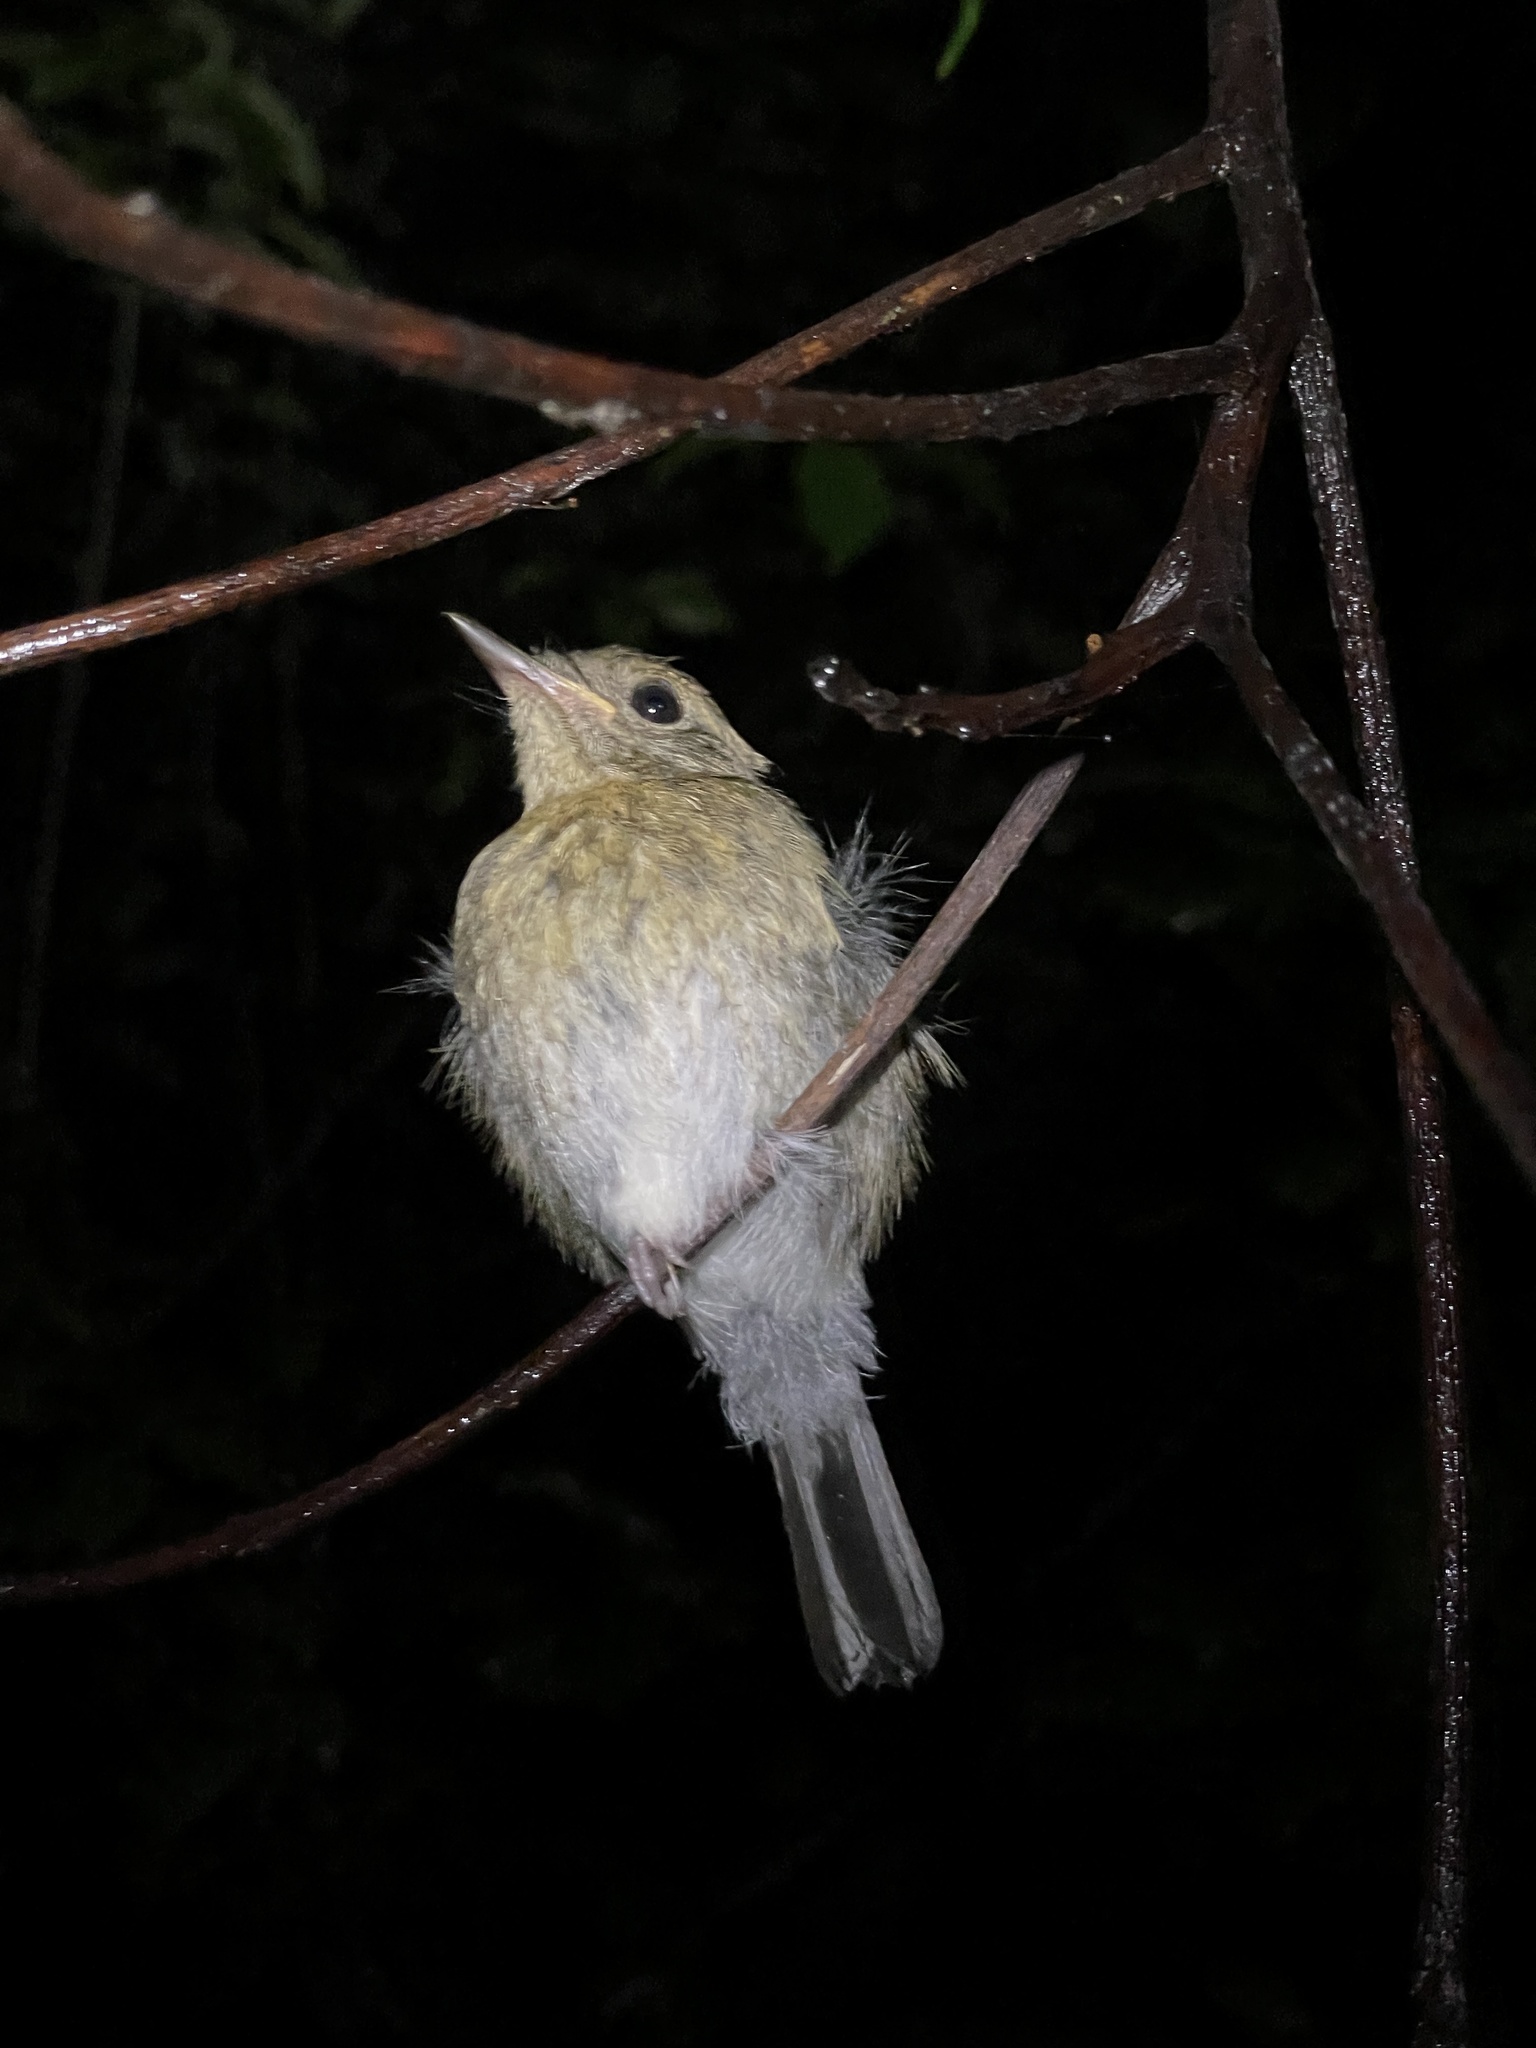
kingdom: Animalia
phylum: Chordata
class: Aves
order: Passeriformes
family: Muscicapidae
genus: Cyornis
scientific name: Cyornis hainanus
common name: Hainan blue flycatcher
